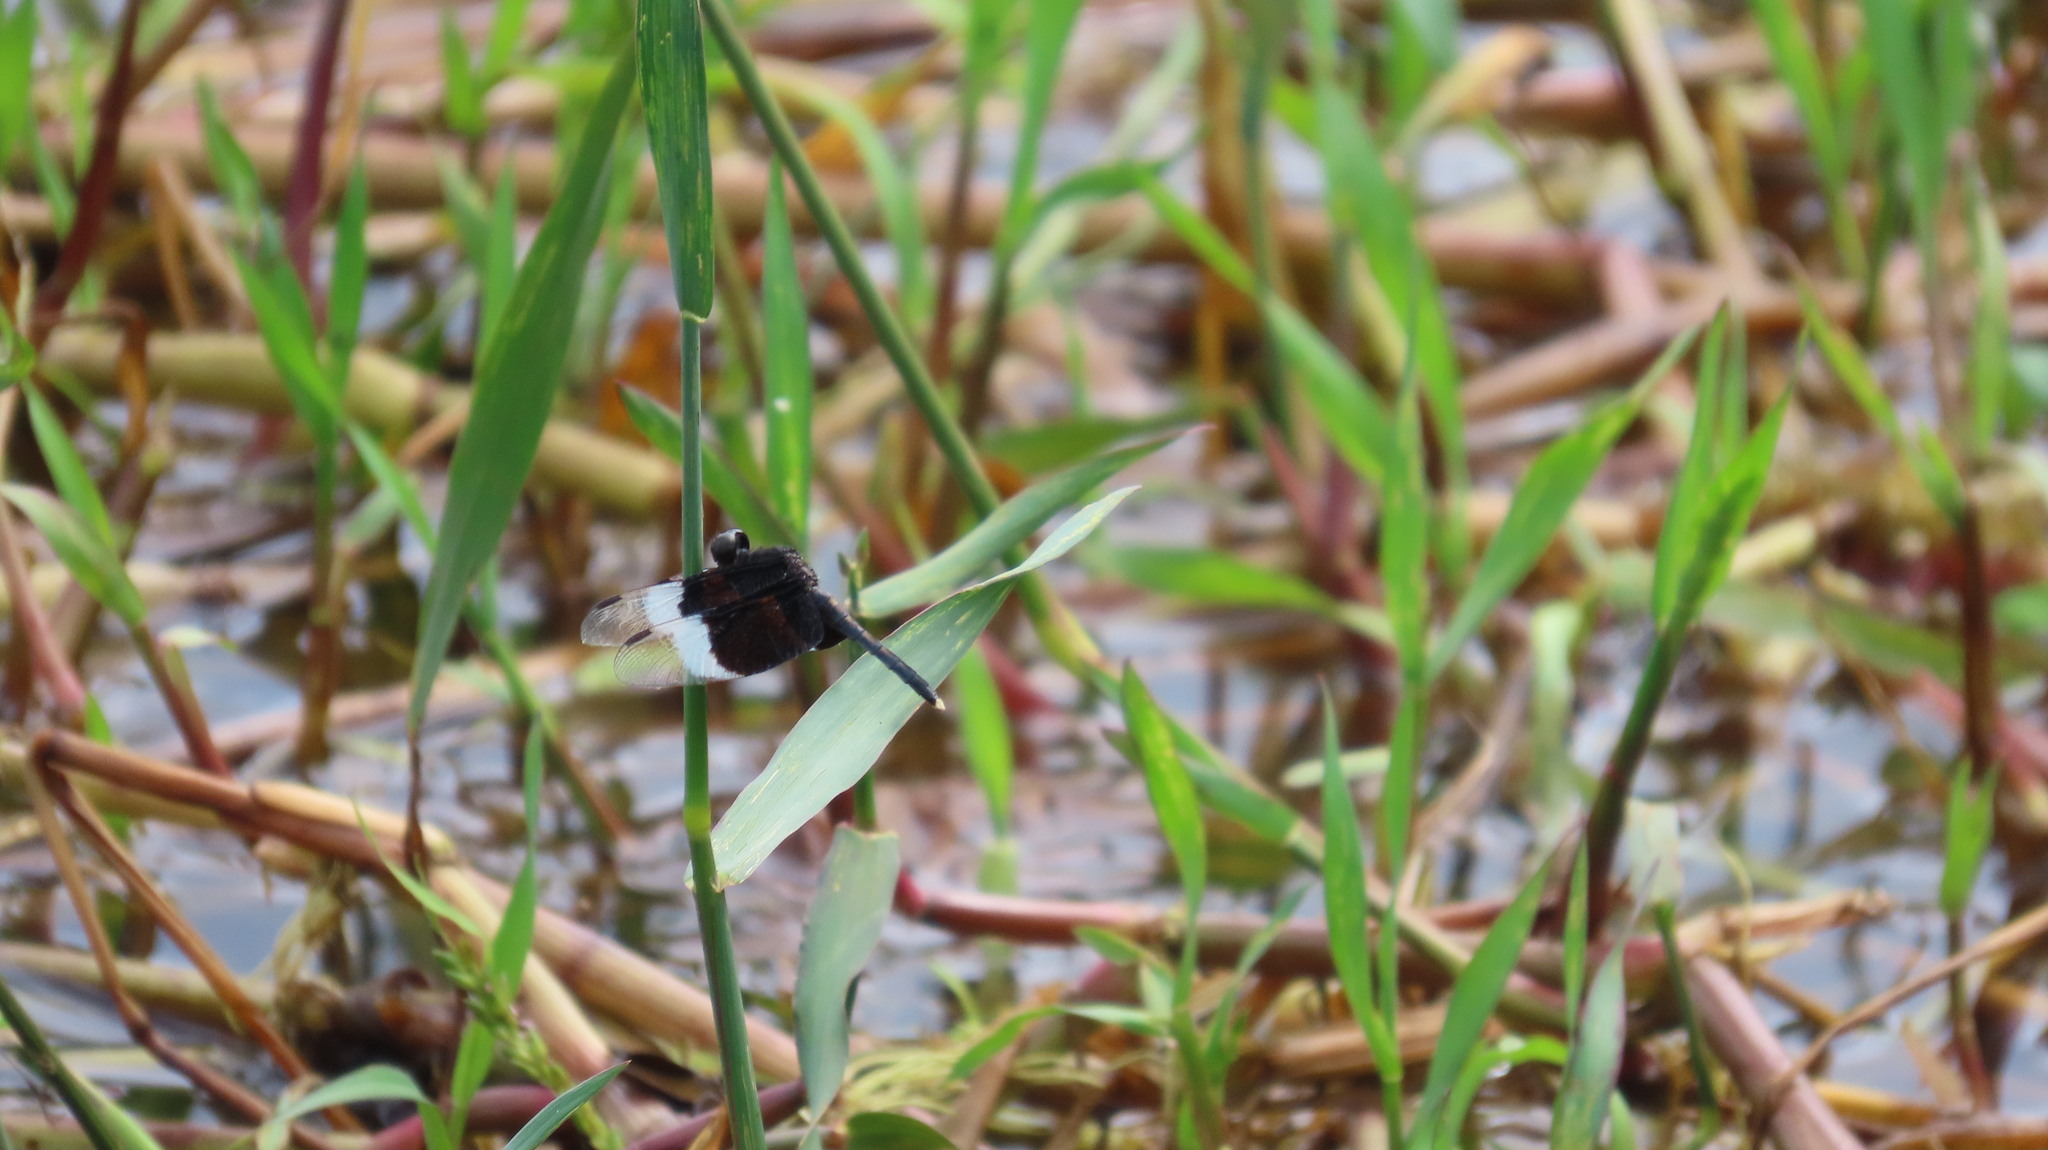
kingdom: Animalia
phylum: Arthropoda
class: Insecta
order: Odonata
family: Libellulidae
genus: Neurothemis
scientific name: Neurothemis tullia
